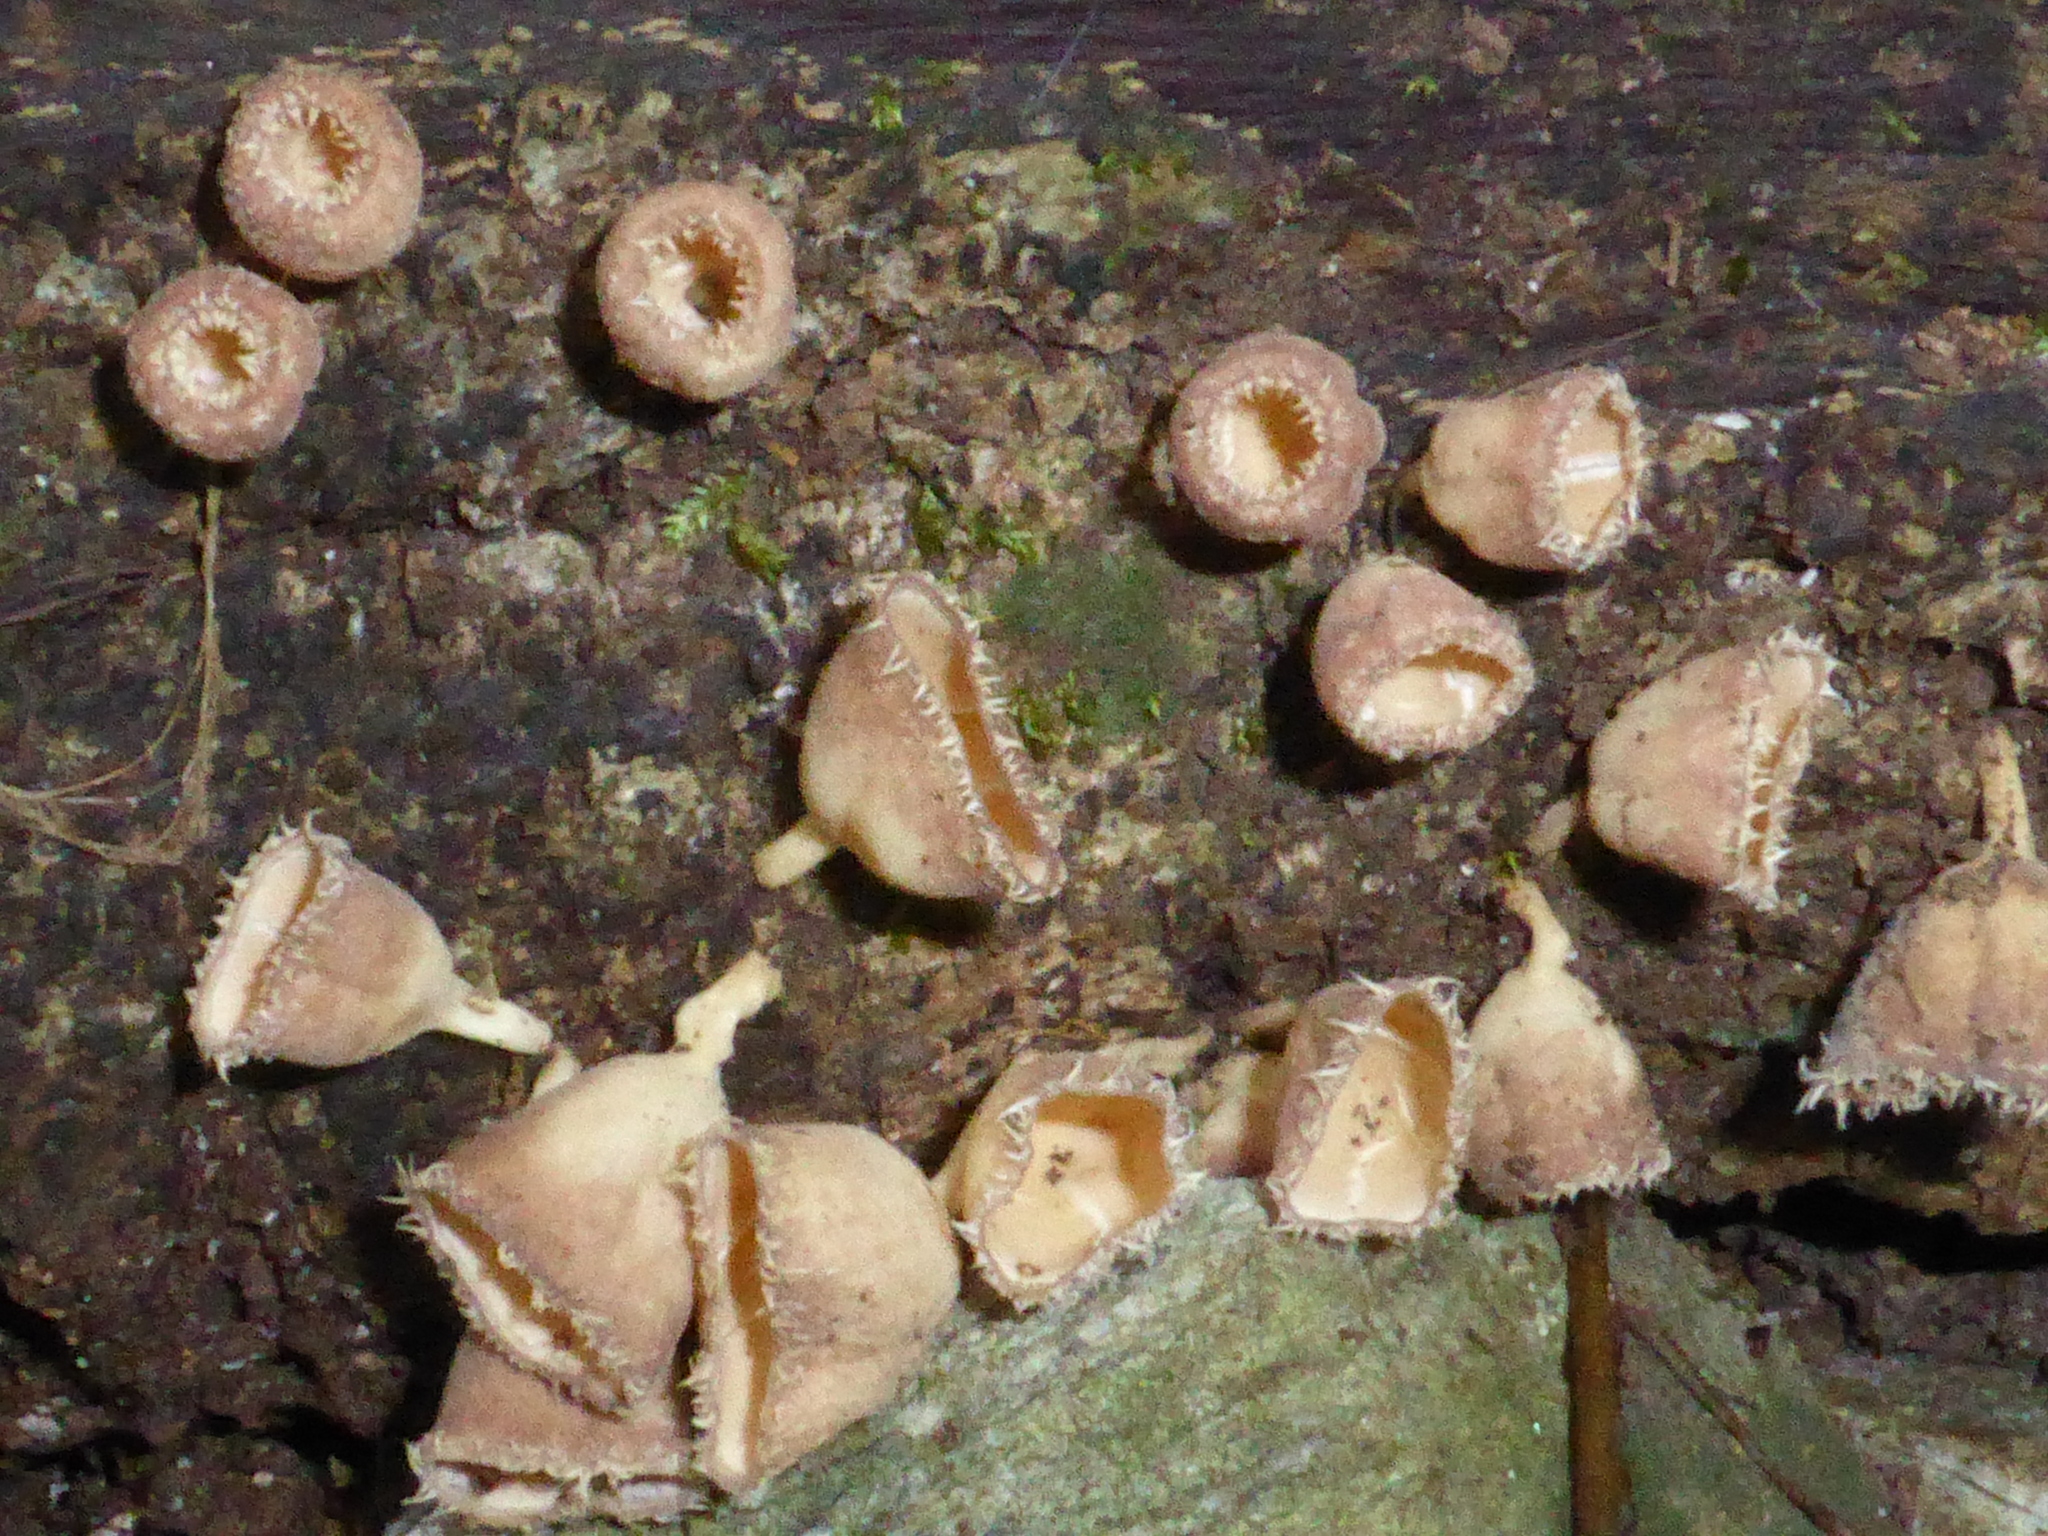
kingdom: Fungi
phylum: Ascomycota
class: Pezizomycetes
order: Pezizales
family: Sarcoscyphaceae
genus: Cookeina
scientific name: Cookeina insititia
